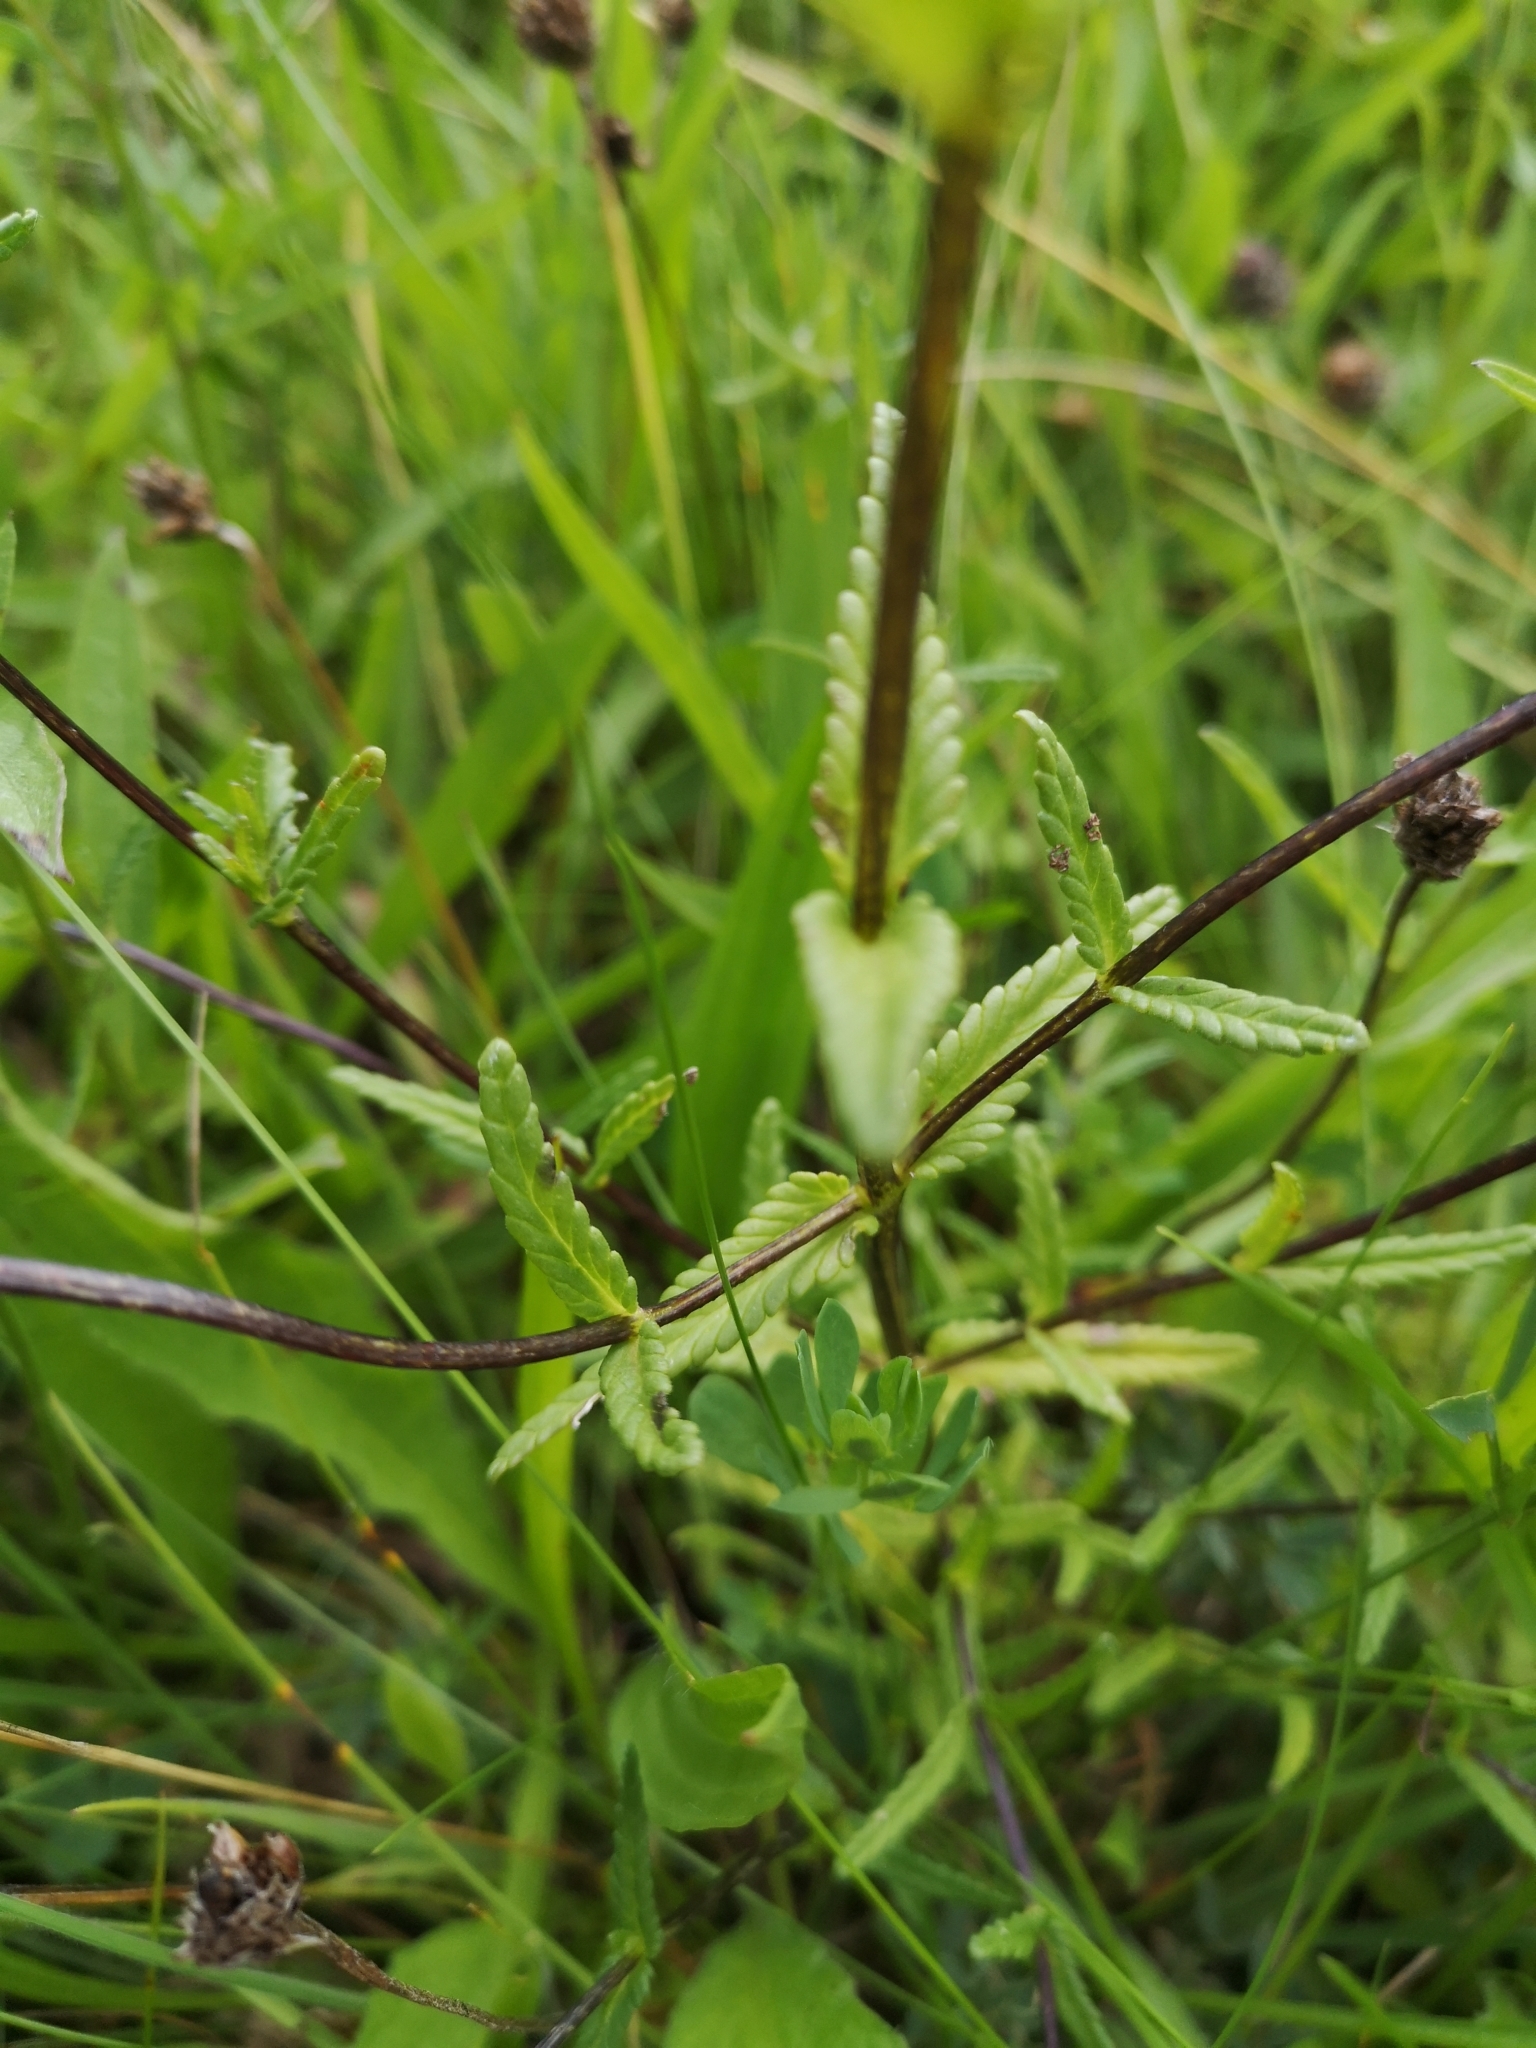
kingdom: Plantae
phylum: Tracheophyta
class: Magnoliopsida
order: Lamiales
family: Orobanchaceae
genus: Rhinanthus
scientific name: Rhinanthus minor
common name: Yellow-rattle
